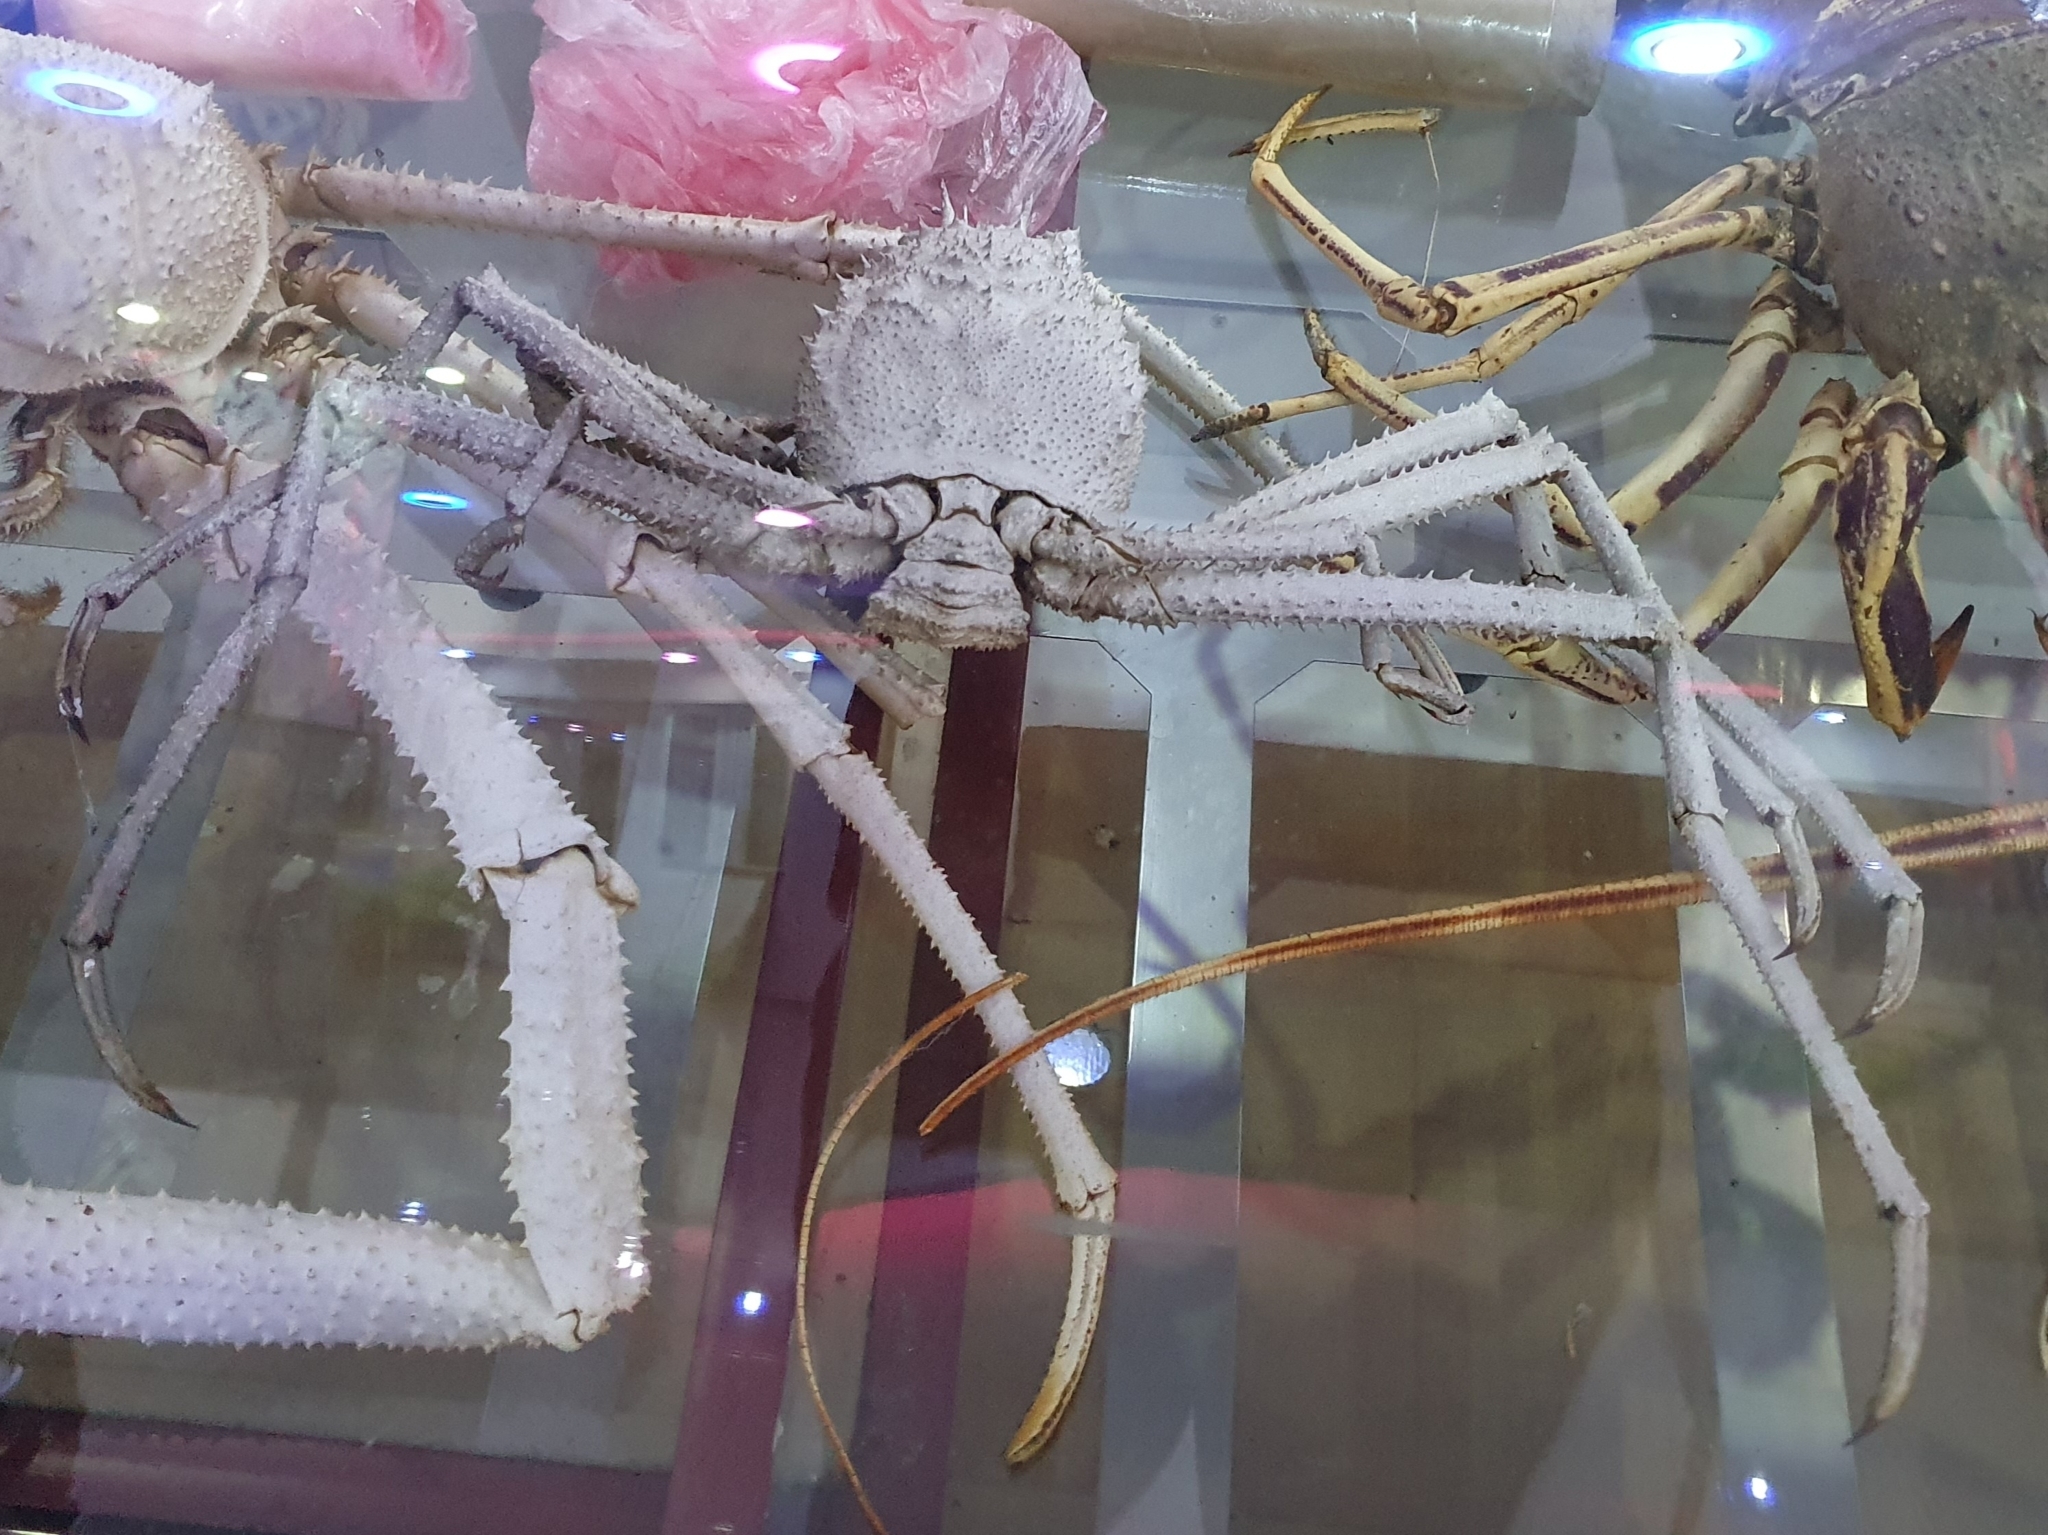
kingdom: Animalia
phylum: Arthropoda
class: Malacostraca
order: Decapoda
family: Homolidae
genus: Paromola
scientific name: Paromola cuvieri
